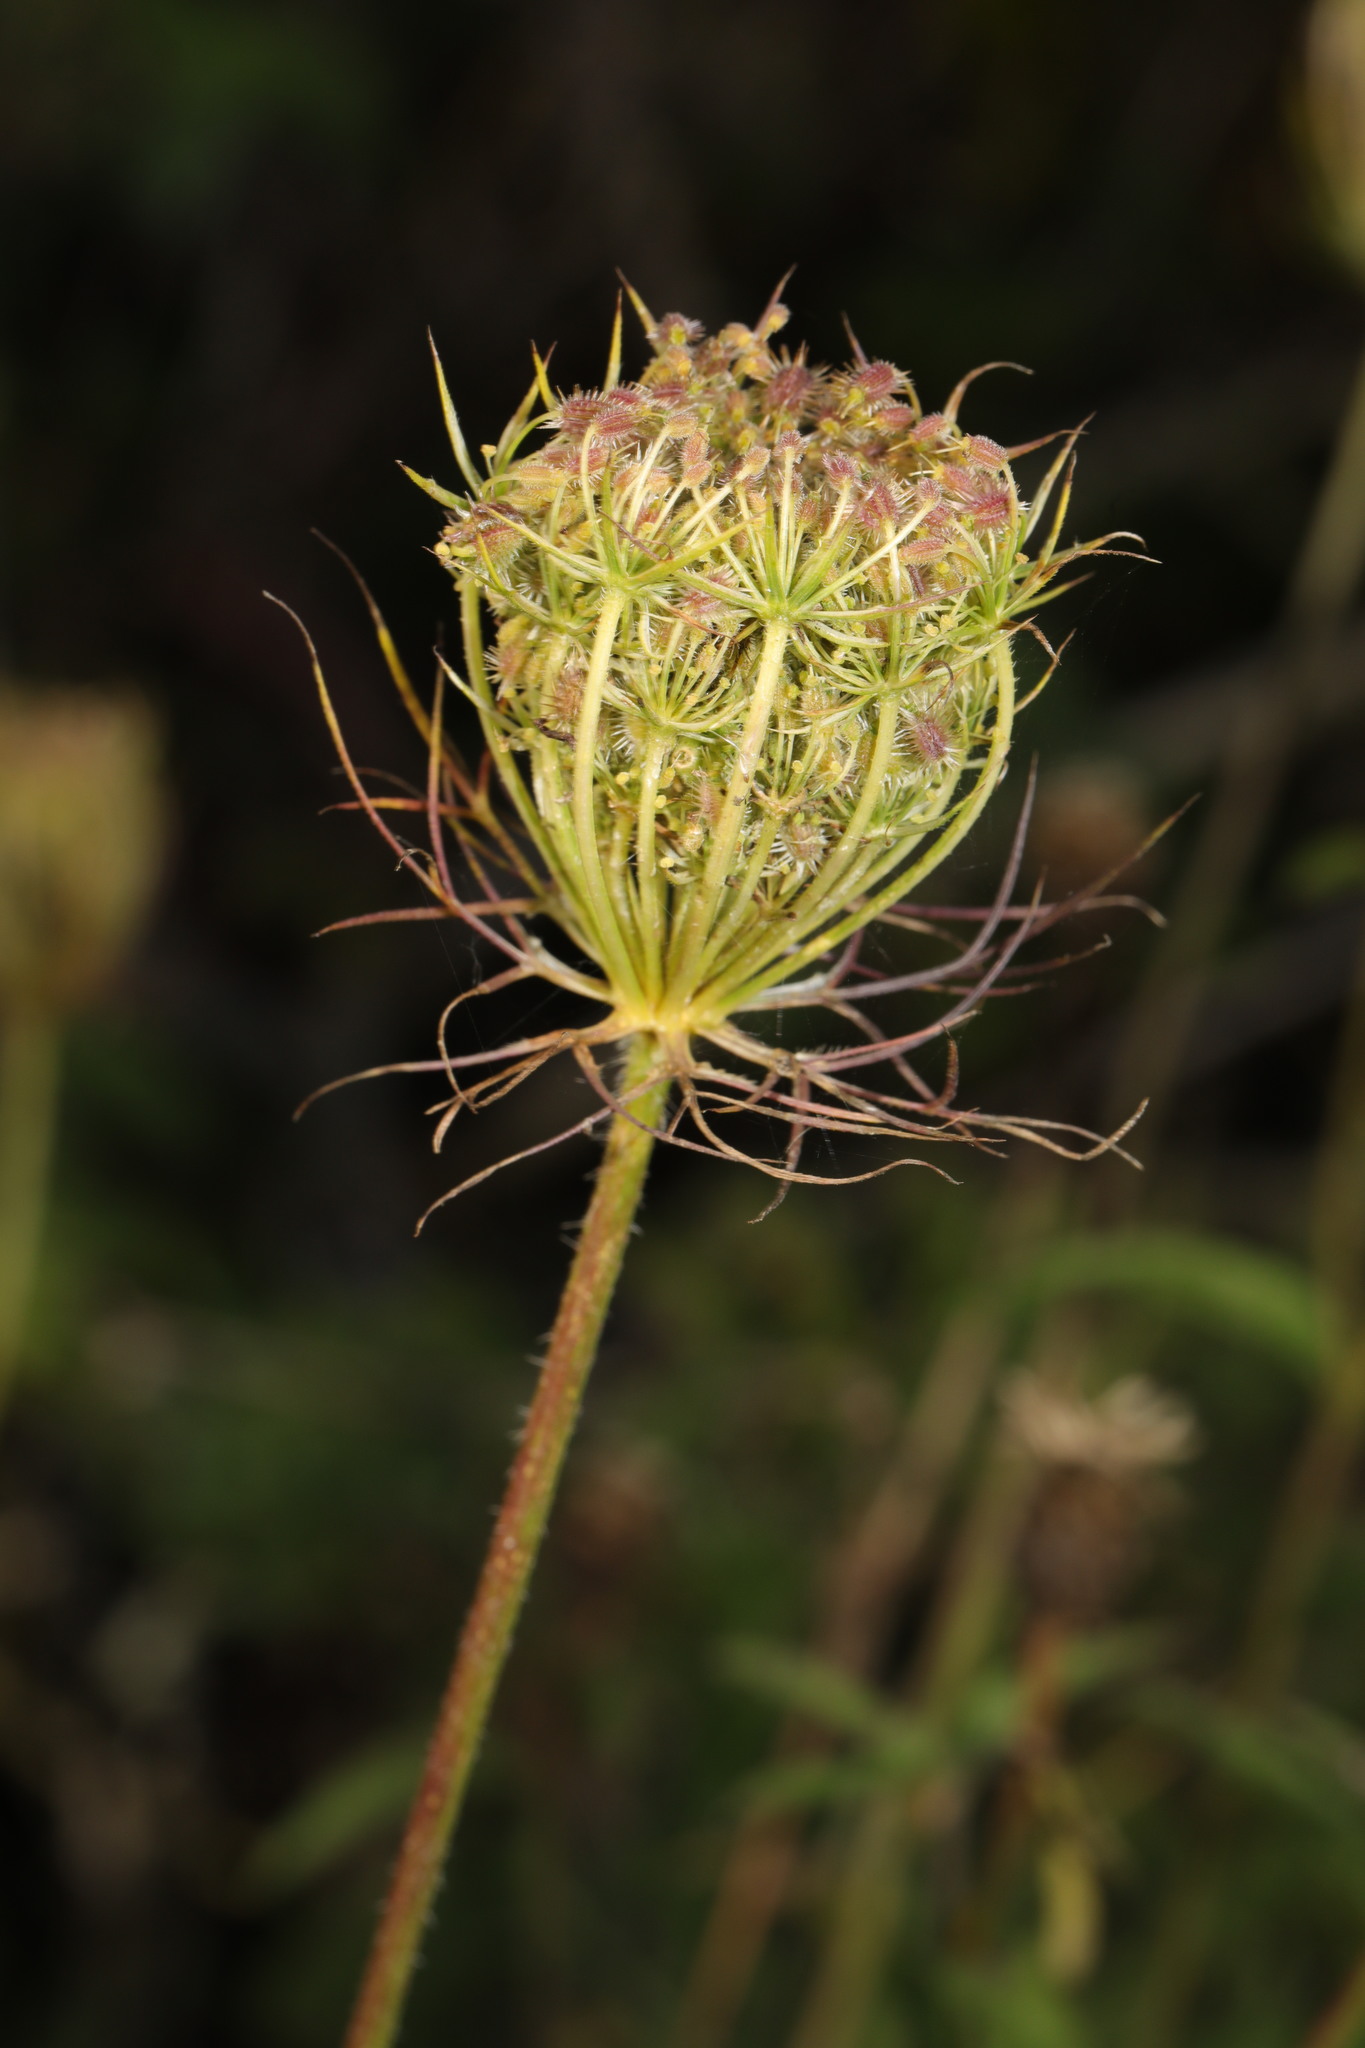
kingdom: Plantae
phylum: Tracheophyta
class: Magnoliopsida
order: Apiales
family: Apiaceae
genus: Daucus
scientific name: Daucus carota
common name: Wild carrot
